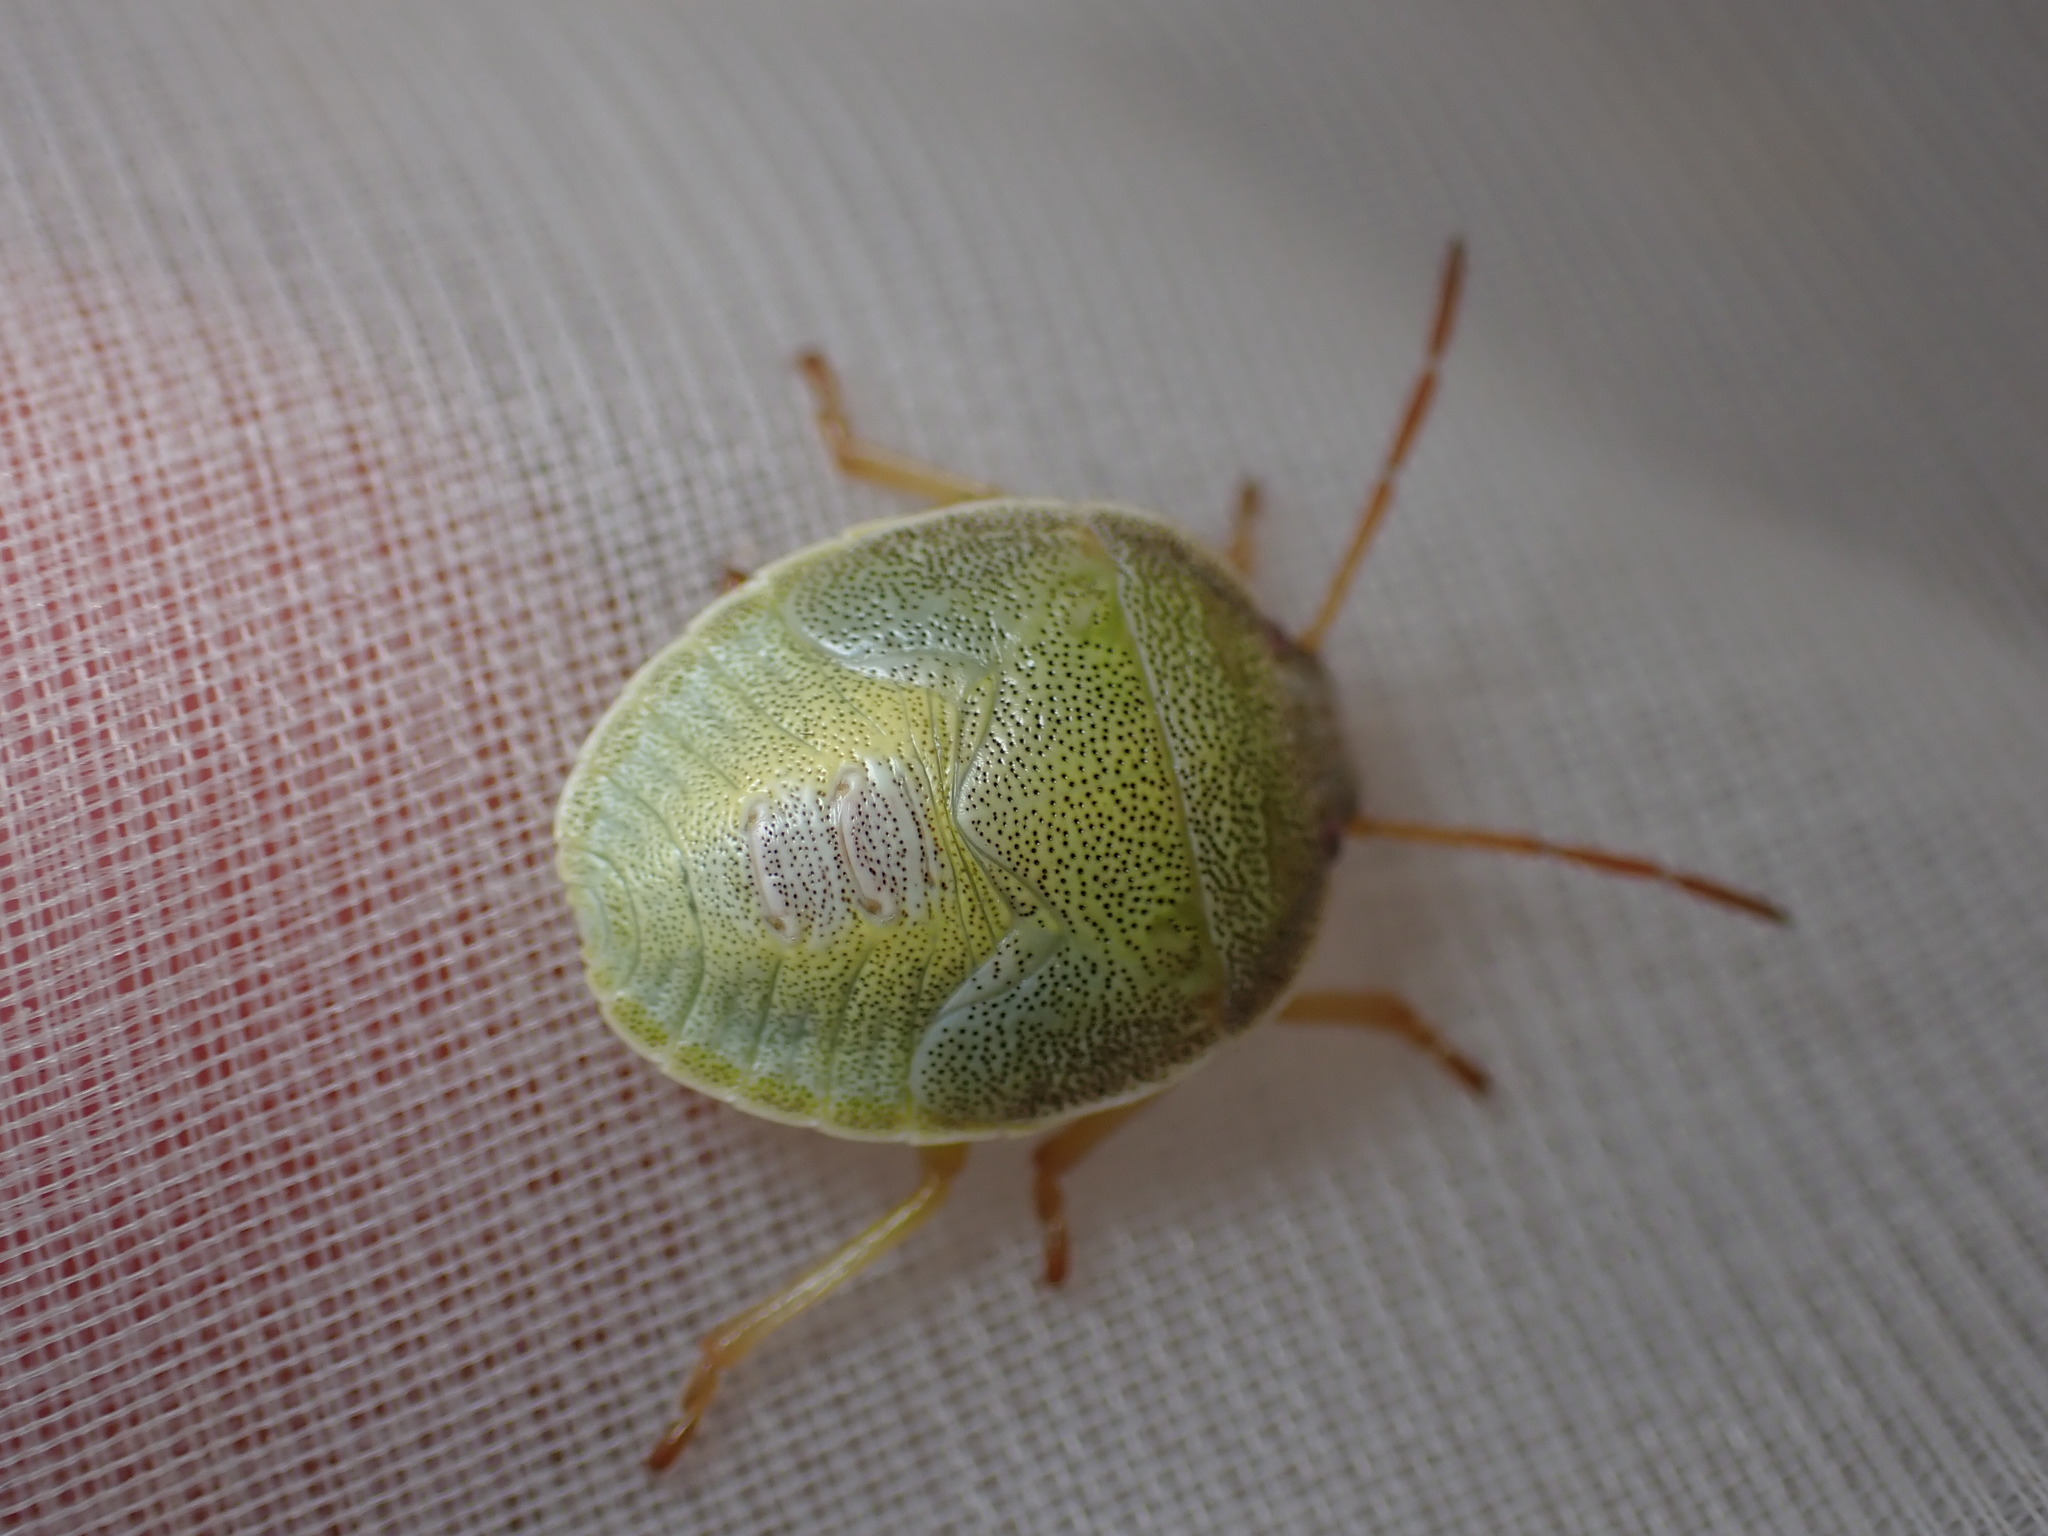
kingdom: Animalia
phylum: Arthropoda
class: Insecta
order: Hemiptera
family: Pentatomidae
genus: Piezodorus
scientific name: Piezodorus lituratus
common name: Stink bug
